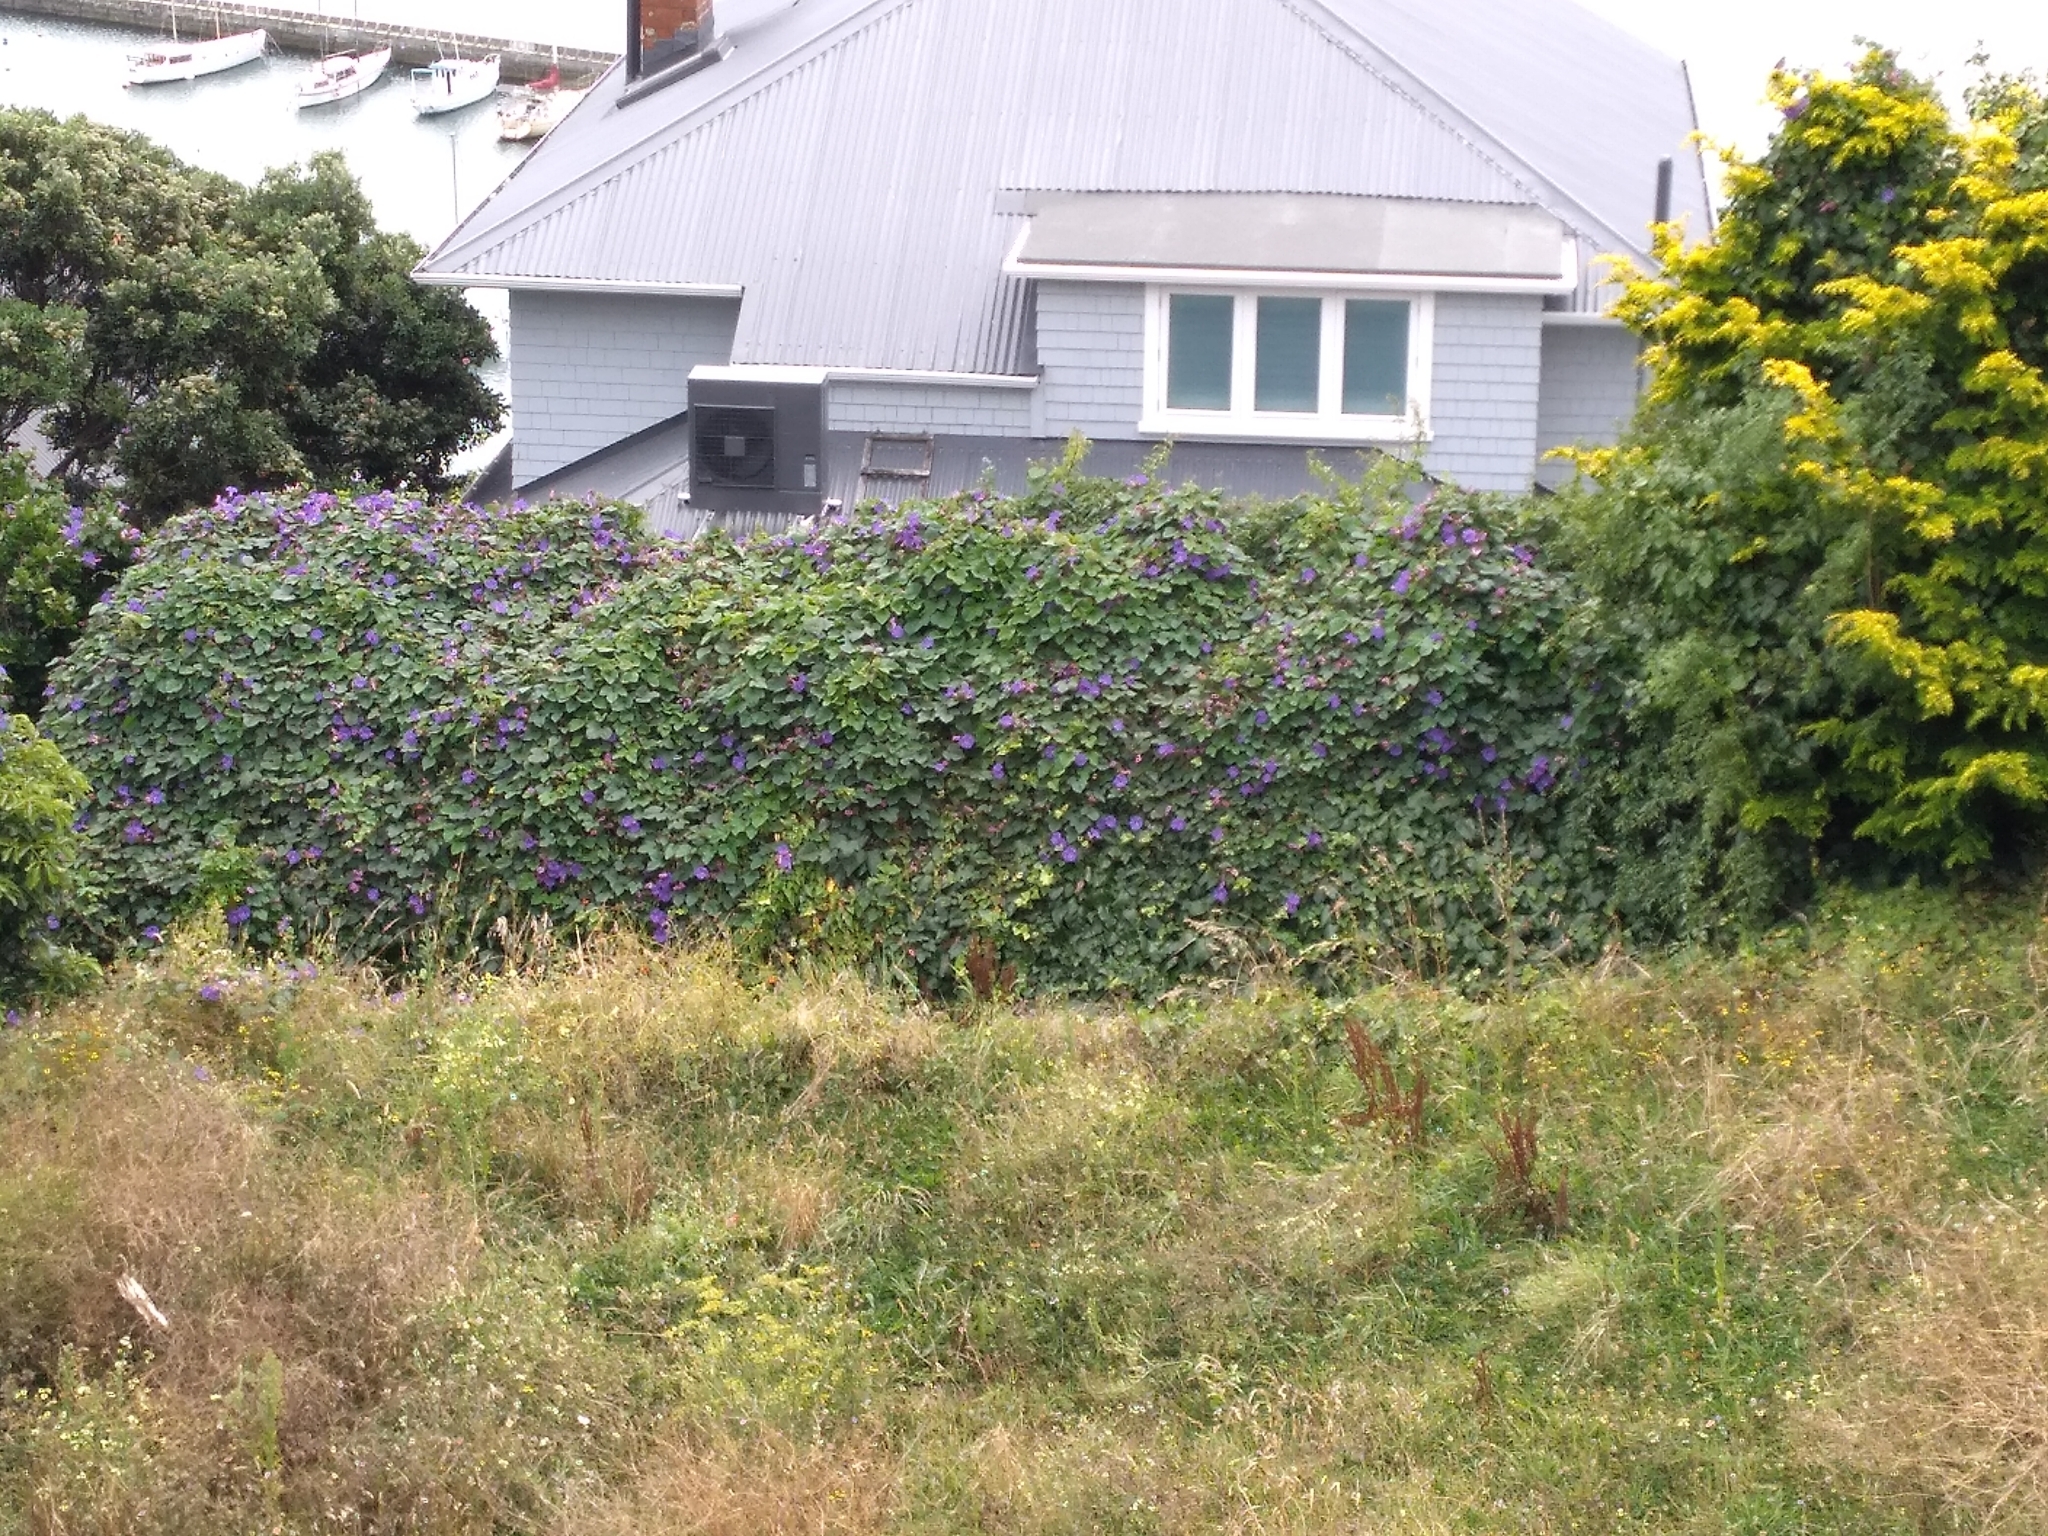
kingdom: Plantae
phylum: Tracheophyta
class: Magnoliopsida
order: Solanales
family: Convolvulaceae
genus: Ipomoea
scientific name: Ipomoea indica
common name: Blue dawnflower
